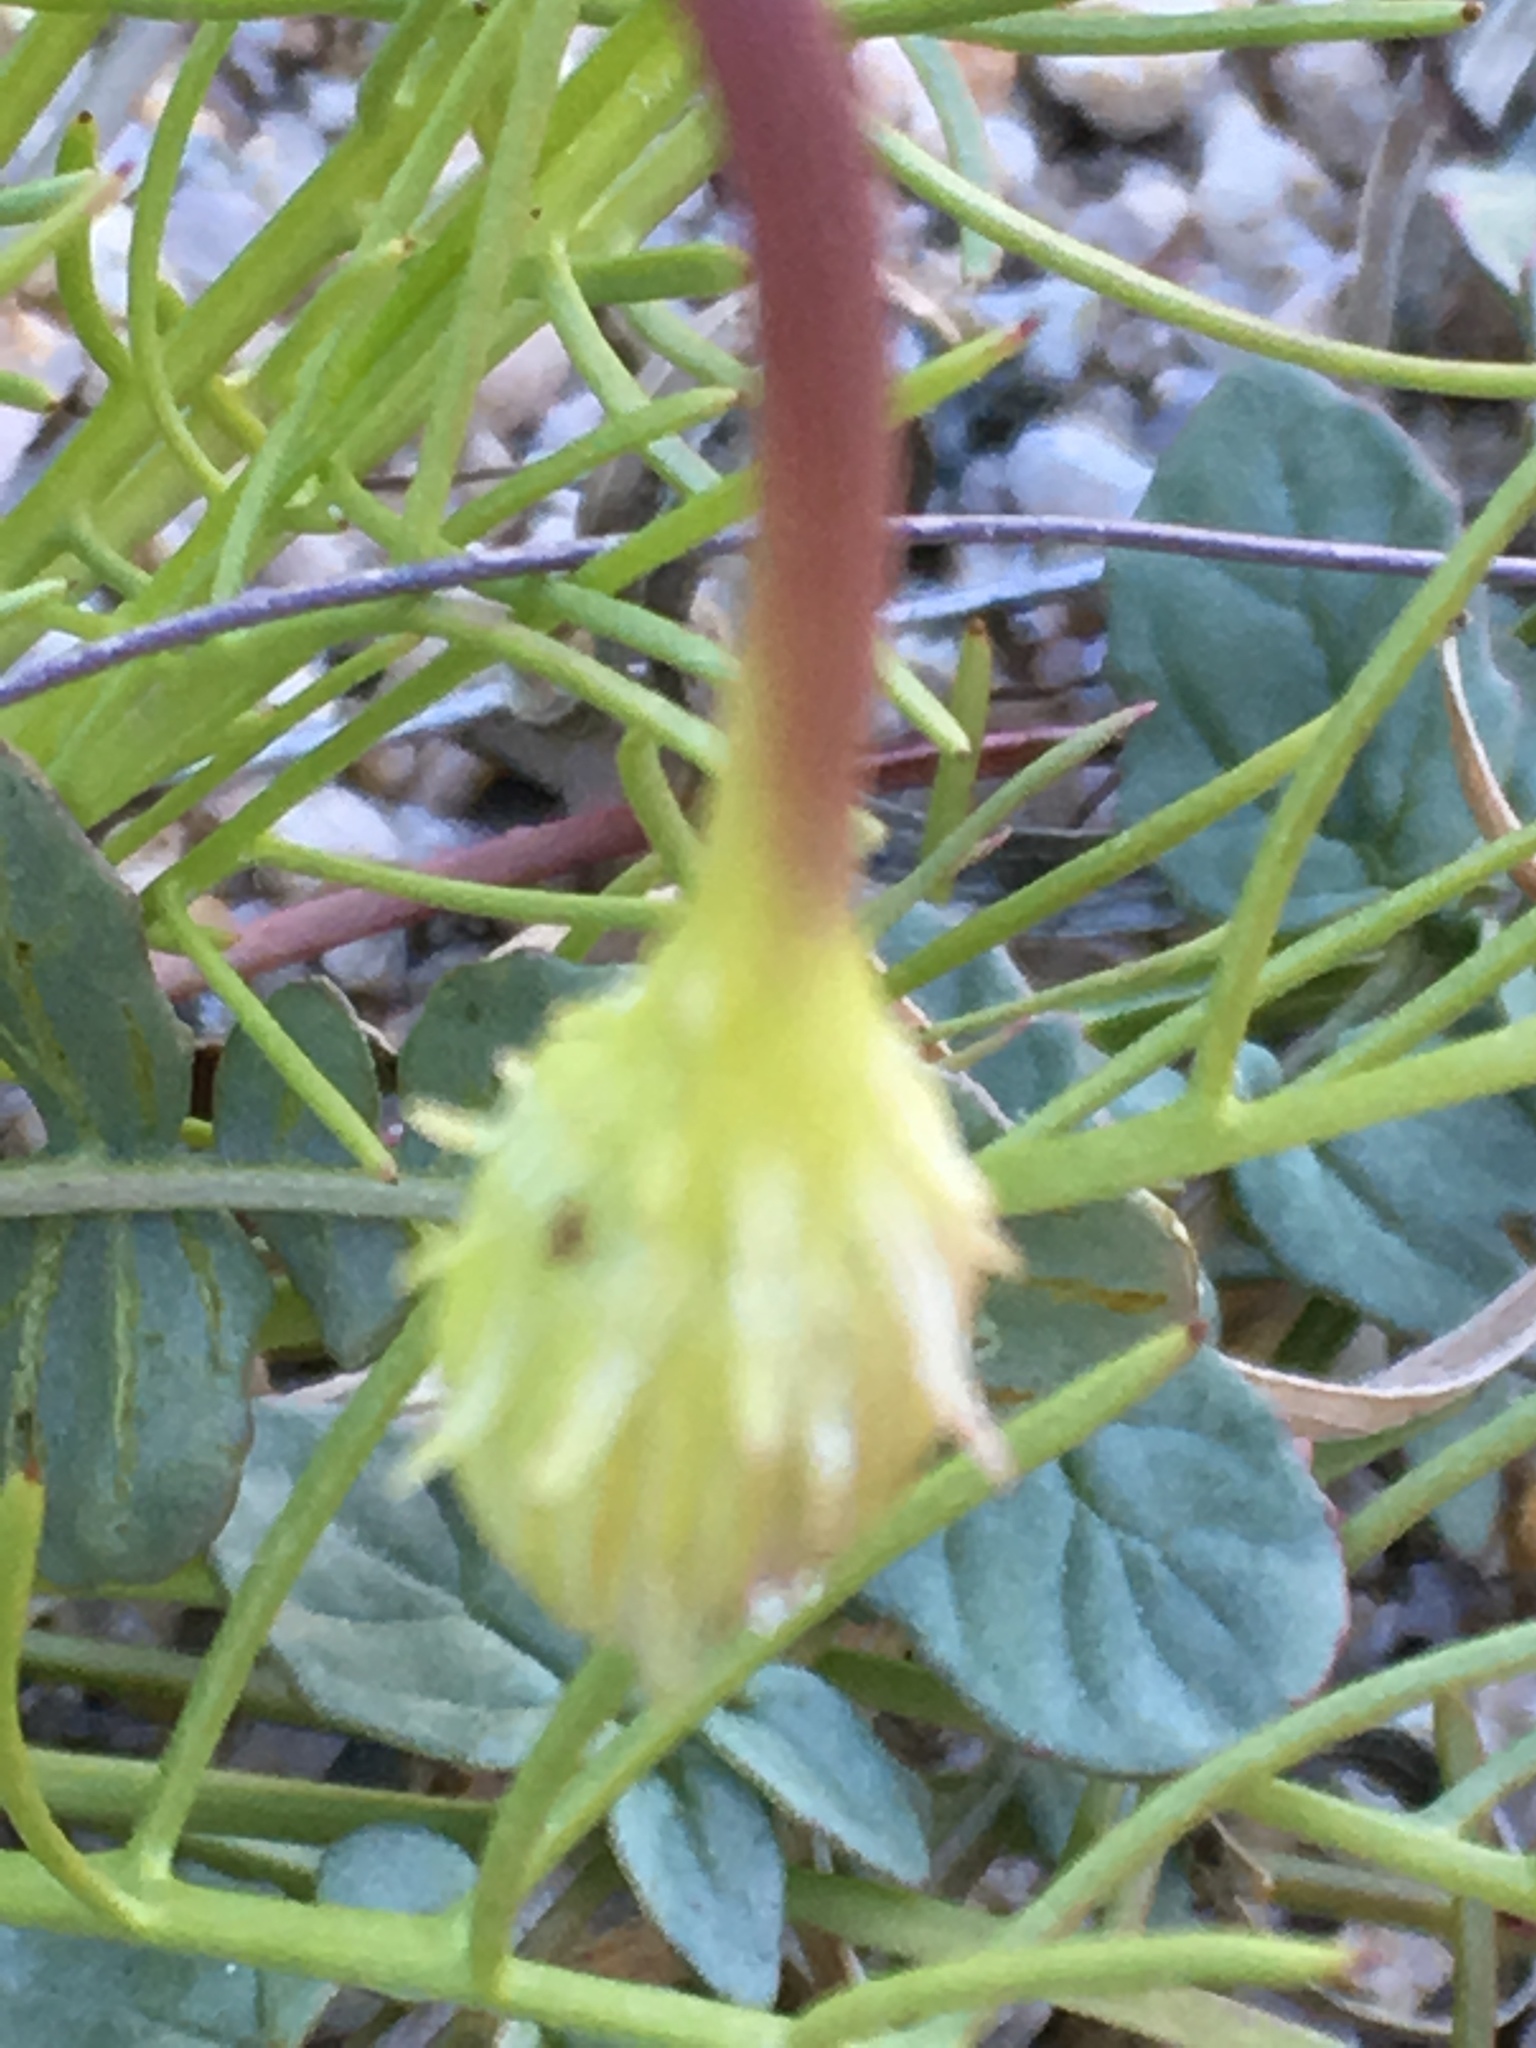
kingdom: Plantae
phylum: Tracheophyta
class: Magnoliopsida
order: Lamiales
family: Plantaginaceae
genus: Neogaerrhinum
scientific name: Neogaerrhinum filipes
